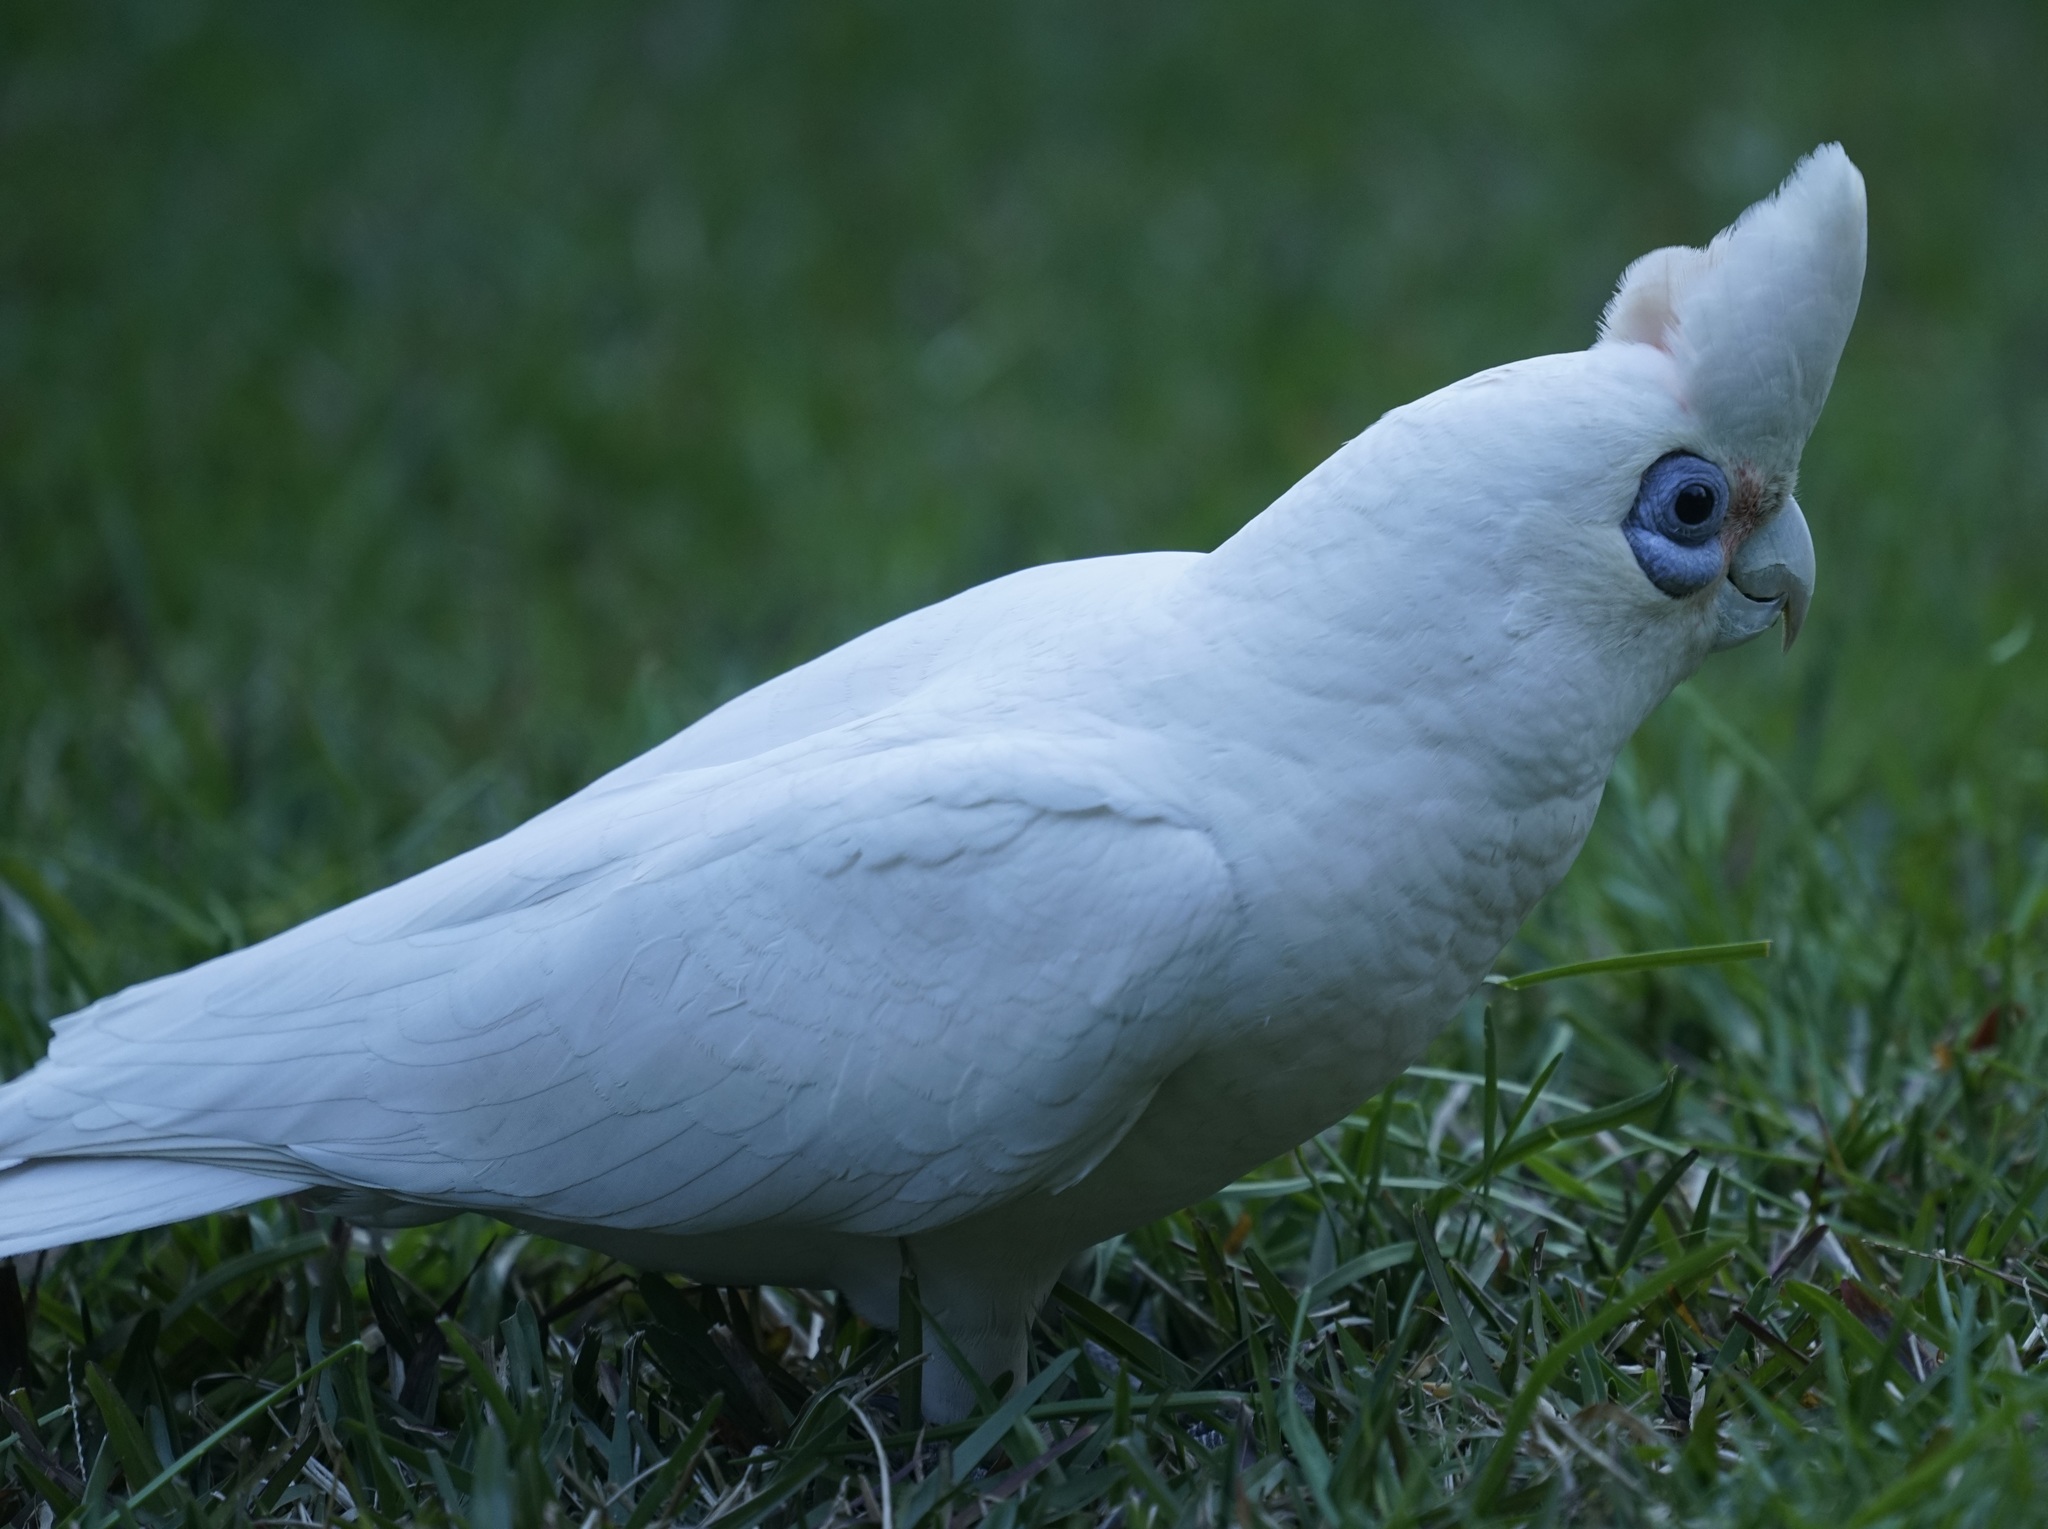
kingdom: Animalia
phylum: Chordata
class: Aves
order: Psittaciformes
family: Psittacidae
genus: Cacatua
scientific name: Cacatua sanguinea
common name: Little corella
